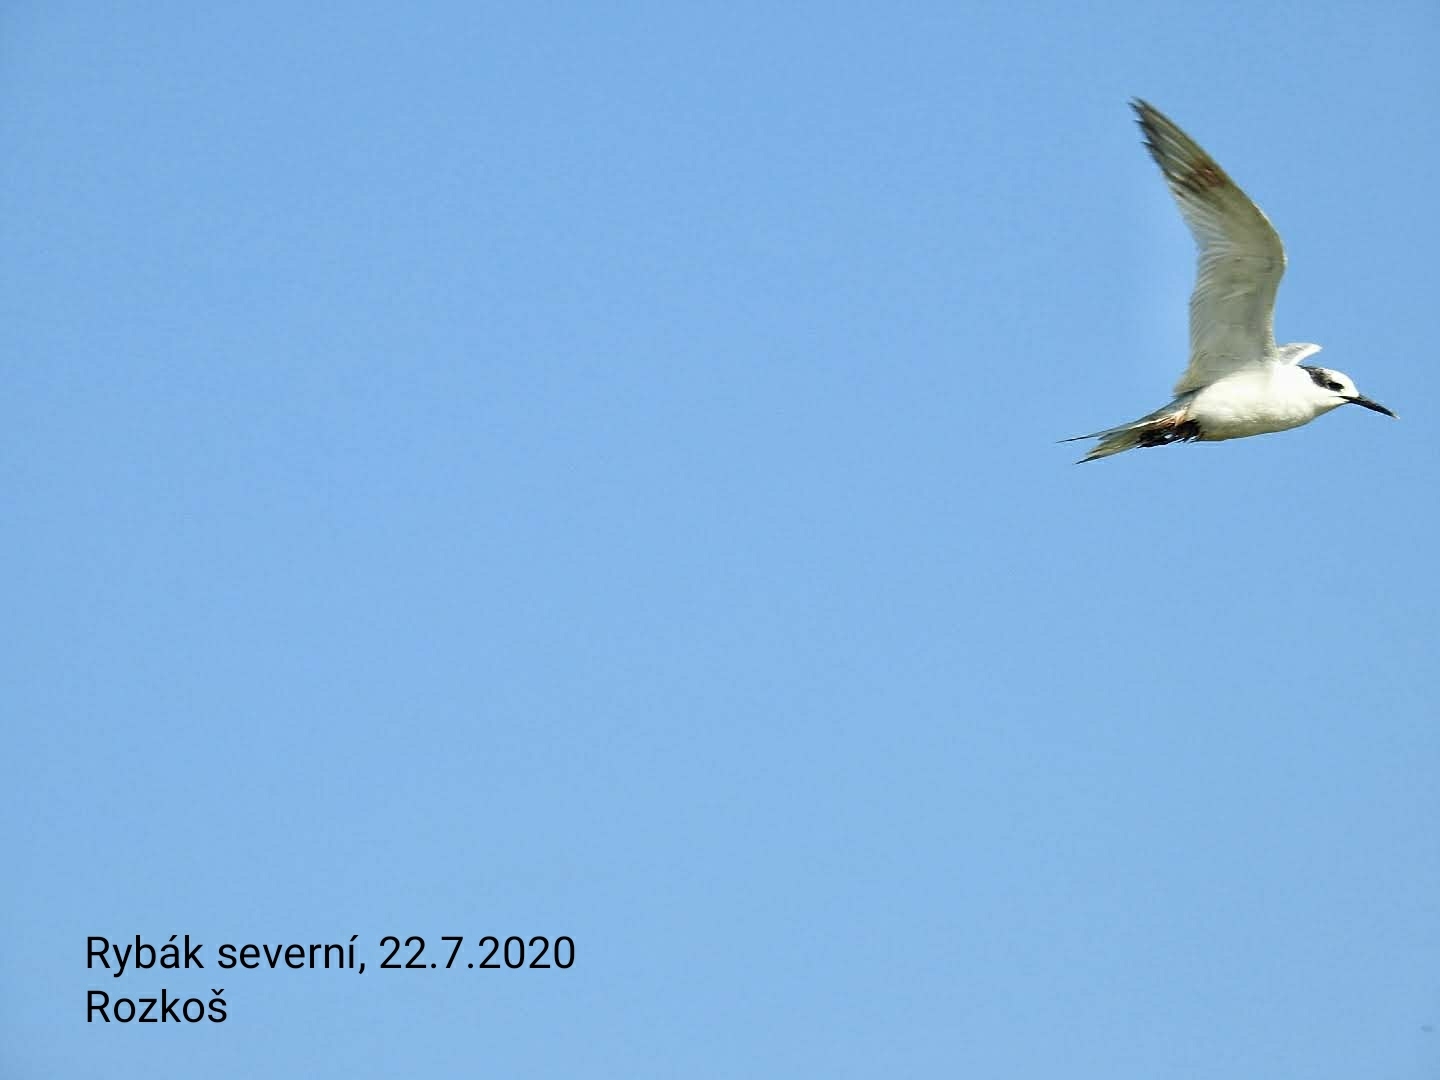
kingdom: Animalia
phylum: Chordata
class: Aves
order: Charadriiformes
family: Laridae
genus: Thalasseus
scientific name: Thalasseus sandvicensis
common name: Sandwich tern
